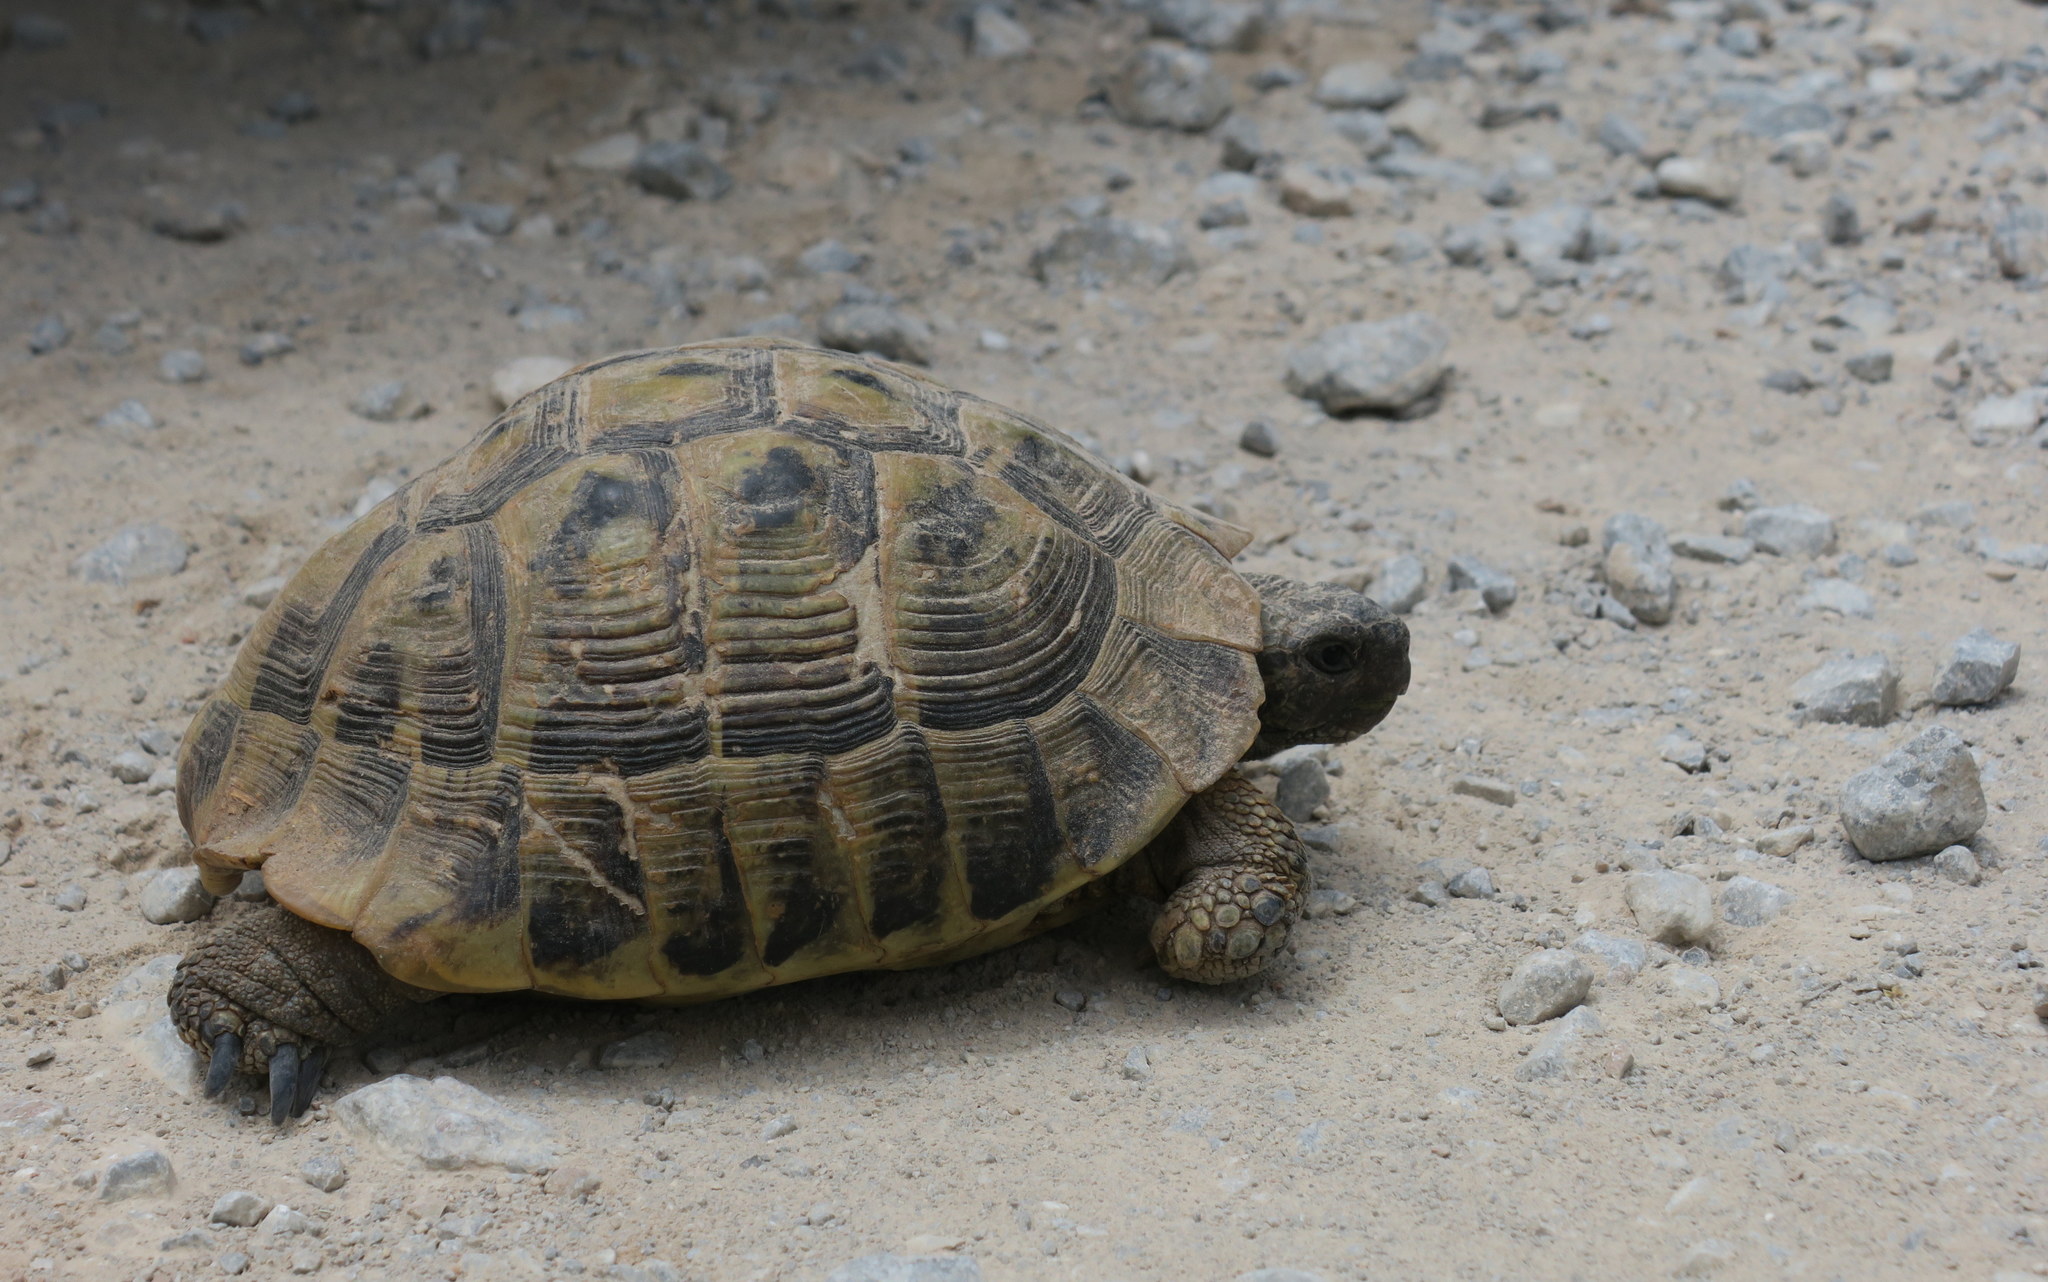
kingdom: Animalia
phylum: Chordata
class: Testudines
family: Testudinidae
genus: Testudo
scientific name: Testudo hermanni
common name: Hermann's tortoise
